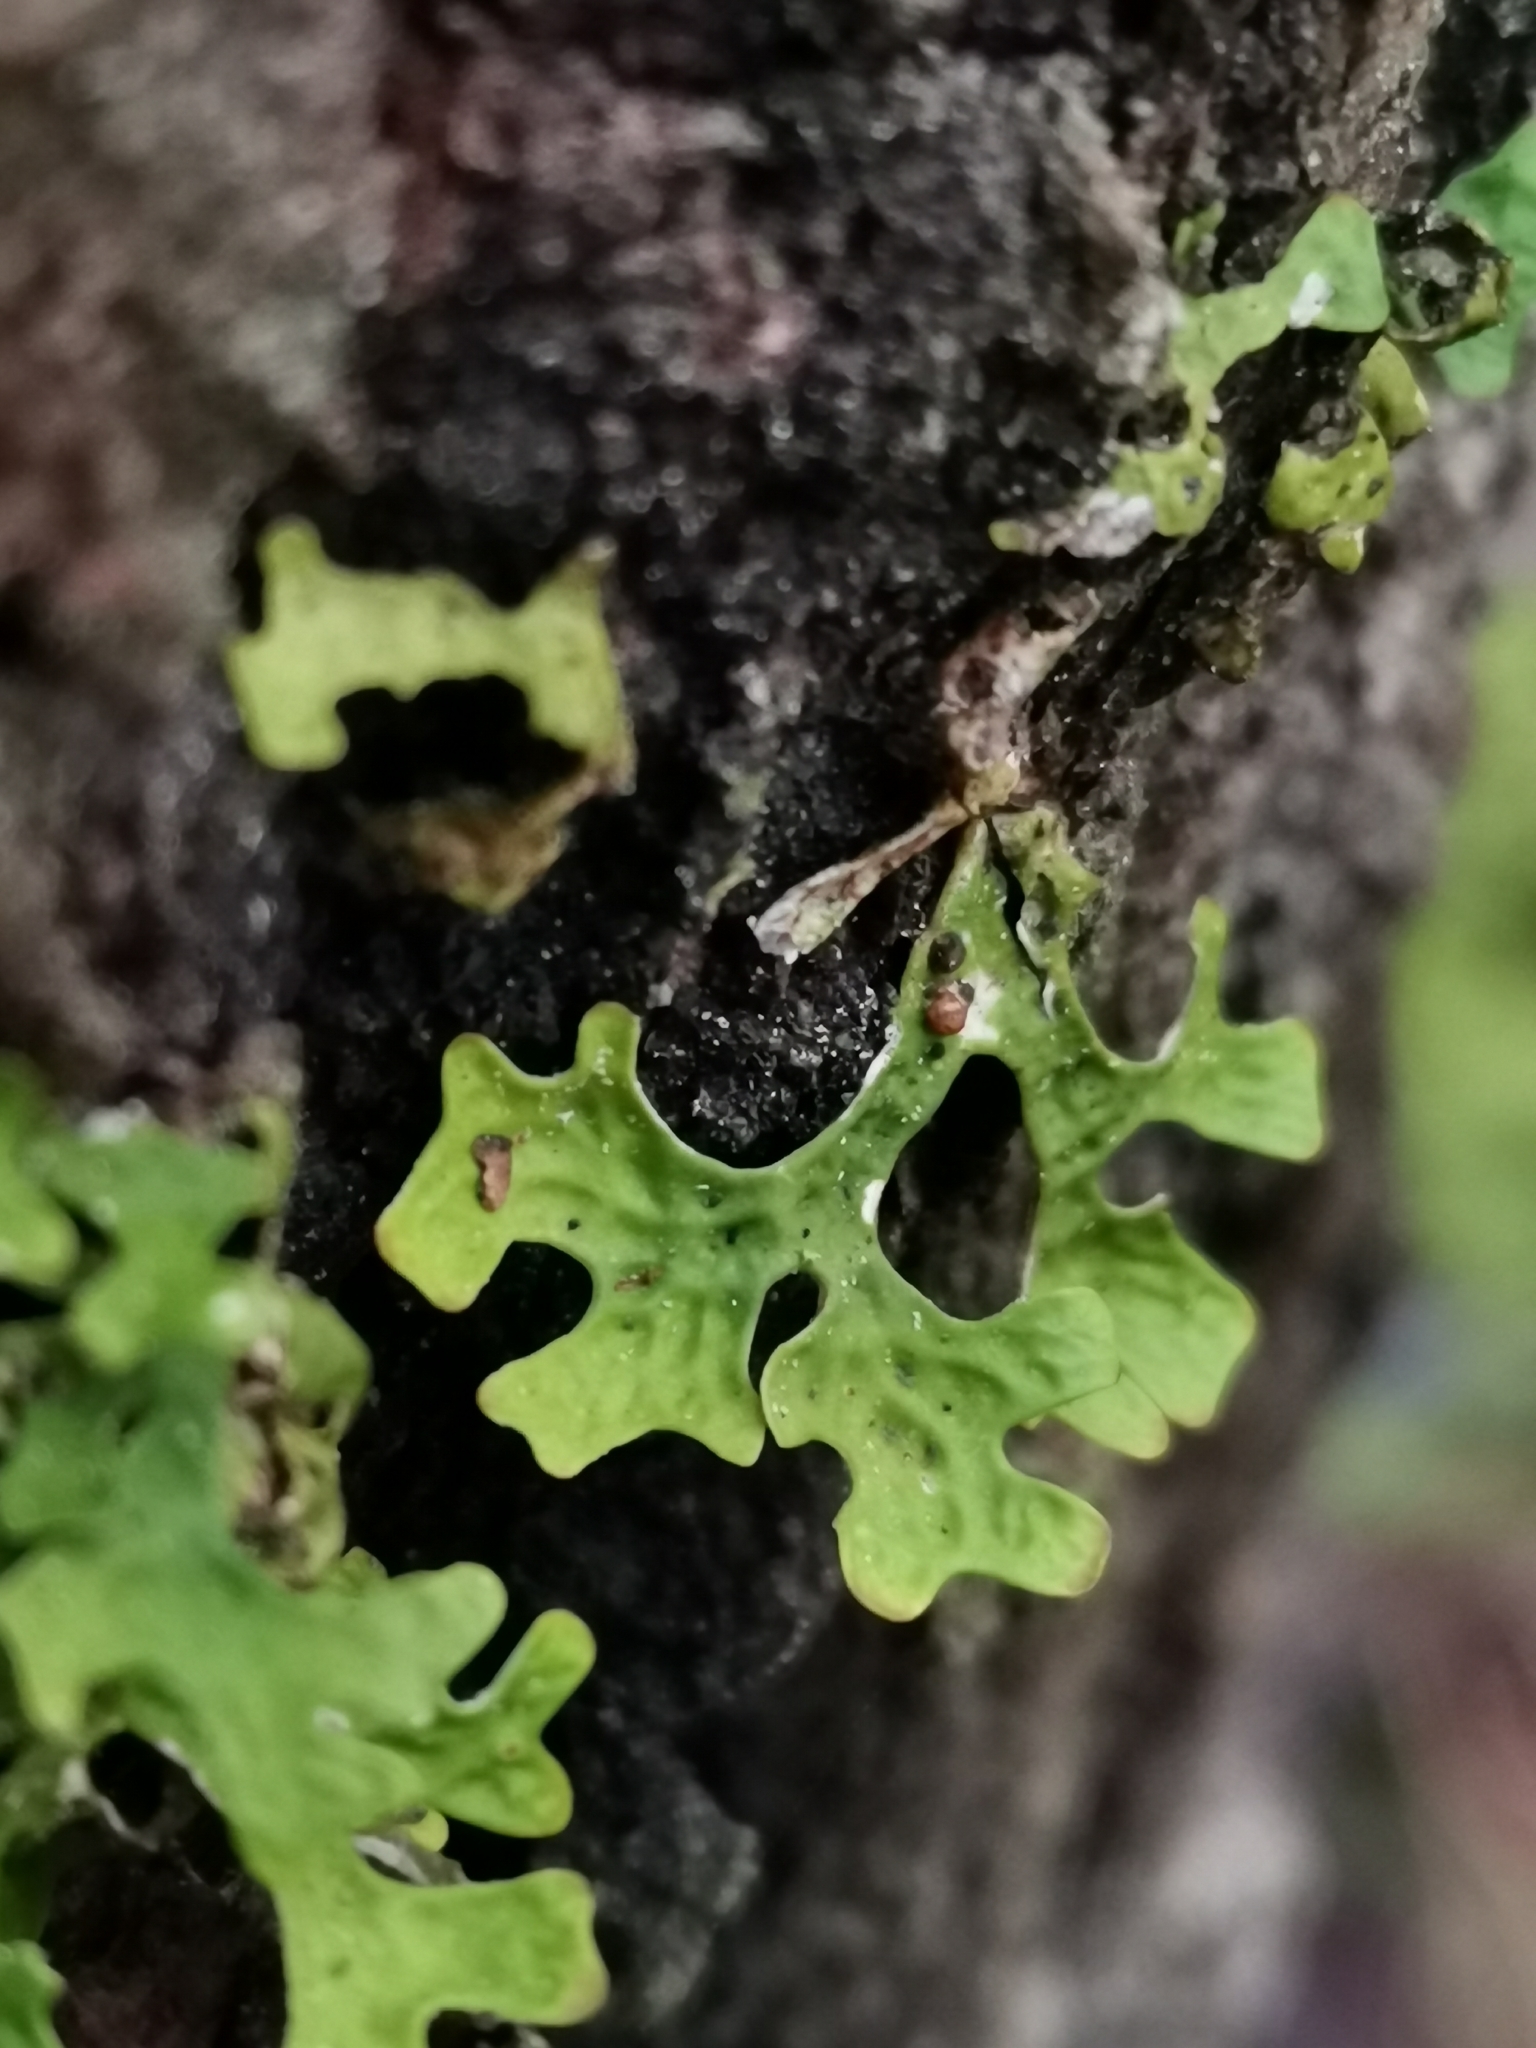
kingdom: Fungi
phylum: Ascomycota
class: Lecanoromycetes
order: Peltigerales
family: Lobariaceae
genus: Lobaria
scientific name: Lobaria pulmonaria
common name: Lungwort
